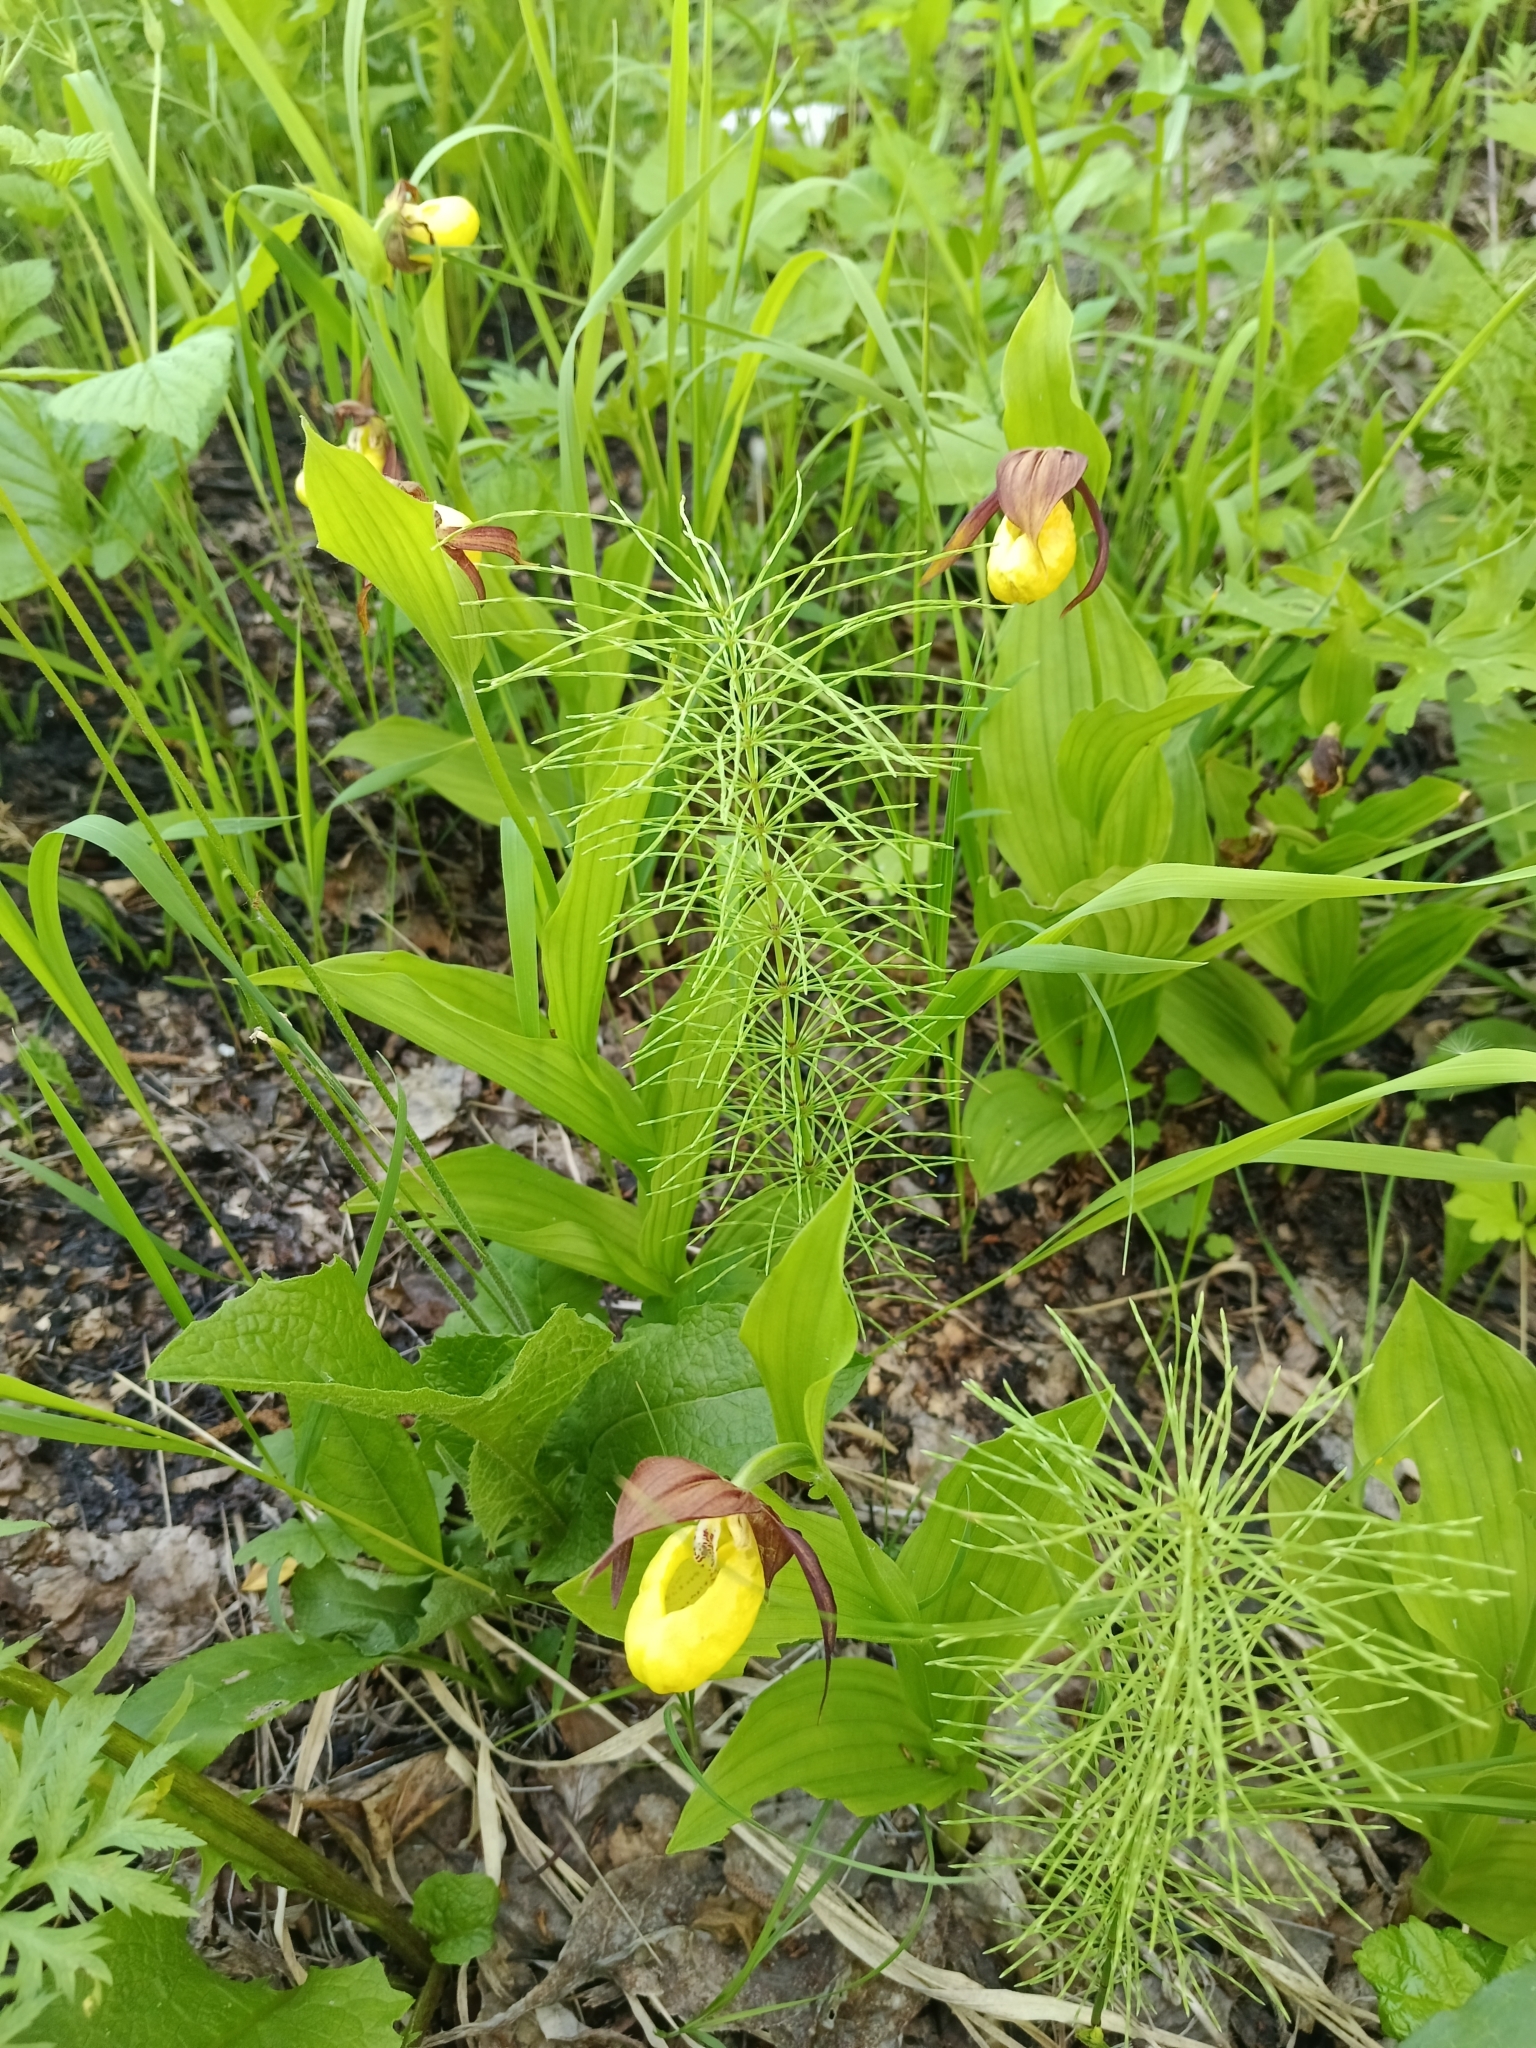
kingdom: Plantae
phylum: Tracheophyta
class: Liliopsida
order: Asparagales
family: Orchidaceae
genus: Cypripedium
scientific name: Cypripedium calceolus
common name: Lady's-slipper
